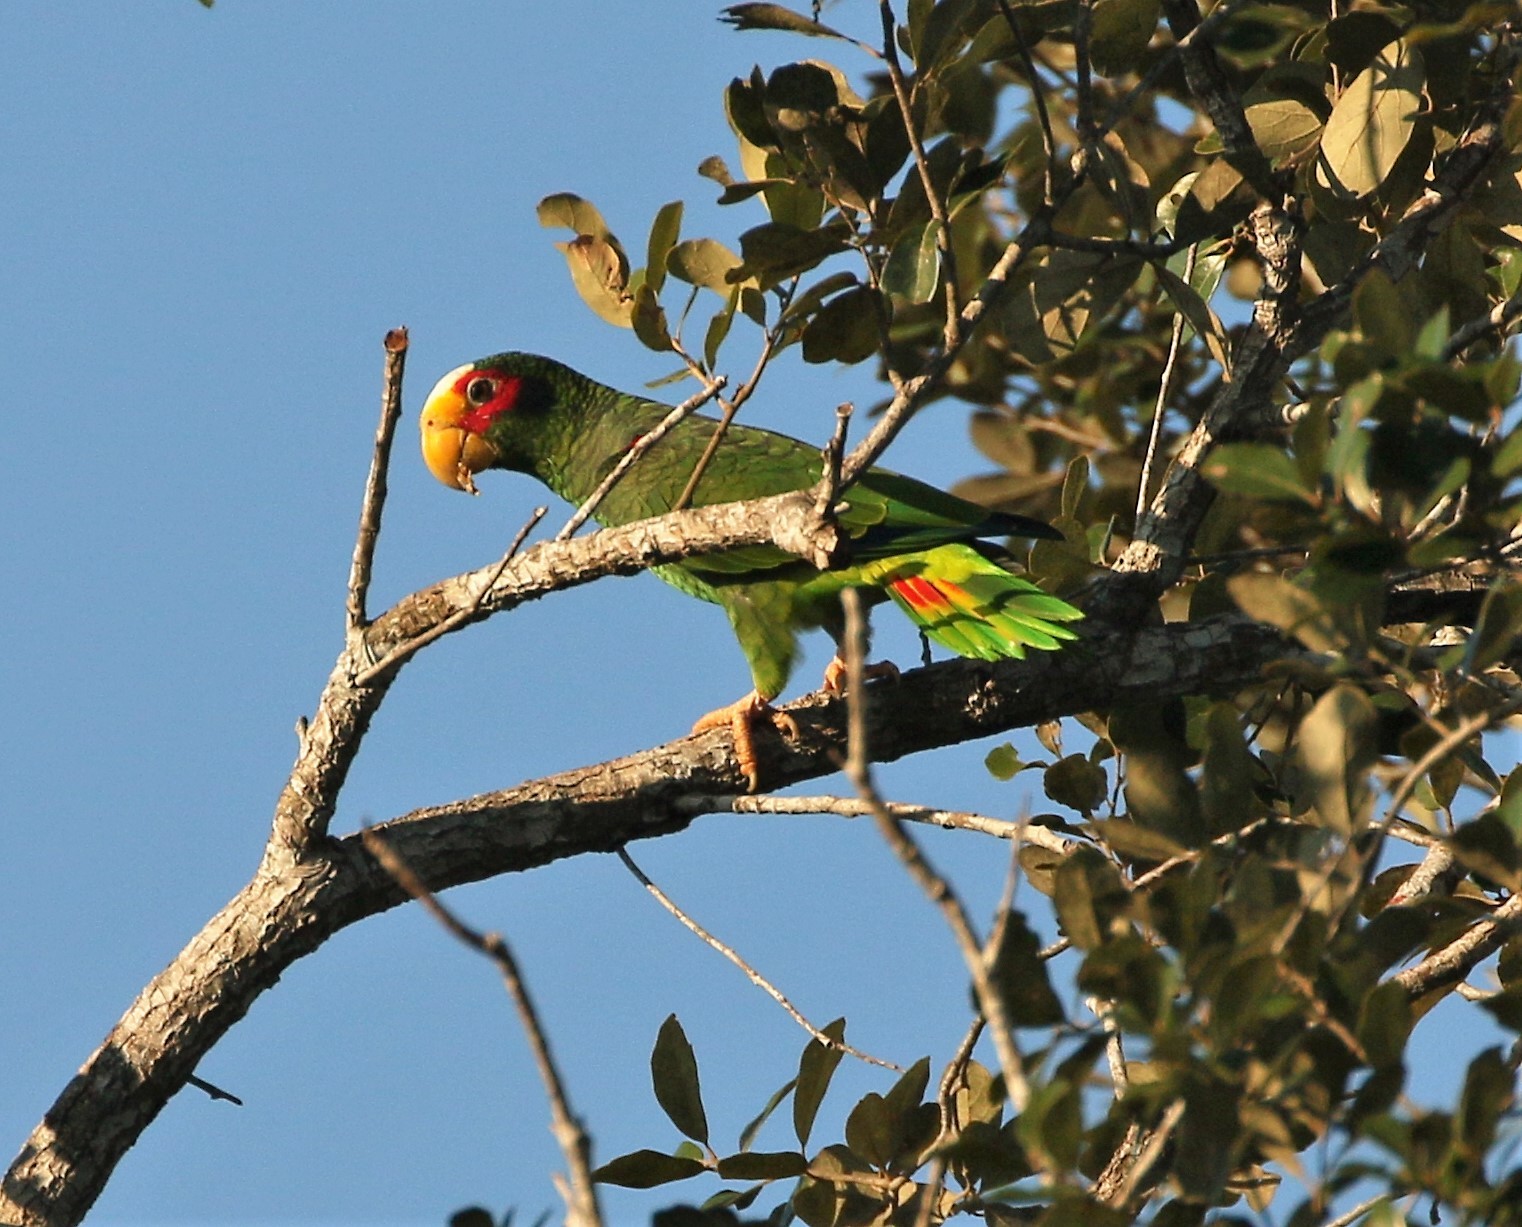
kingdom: Animalia
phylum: Chordata
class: Aves
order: Psittaciformes
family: Psittacidae
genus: Amazona
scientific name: Amazona xantholora
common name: Yucatan amazon
